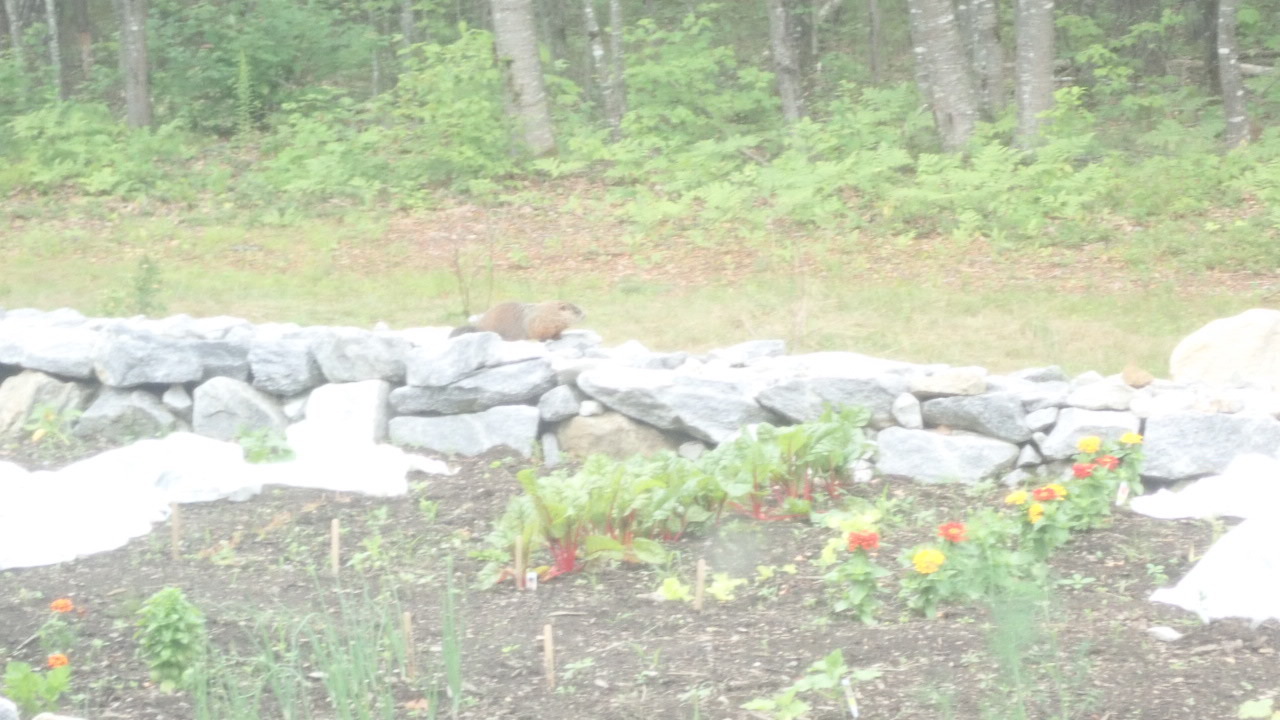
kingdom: Animalia
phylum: Chordata
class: Mammalia
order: Rodentia
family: Sciuridae
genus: Marmota
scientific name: Marmota monax
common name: Groundhog
